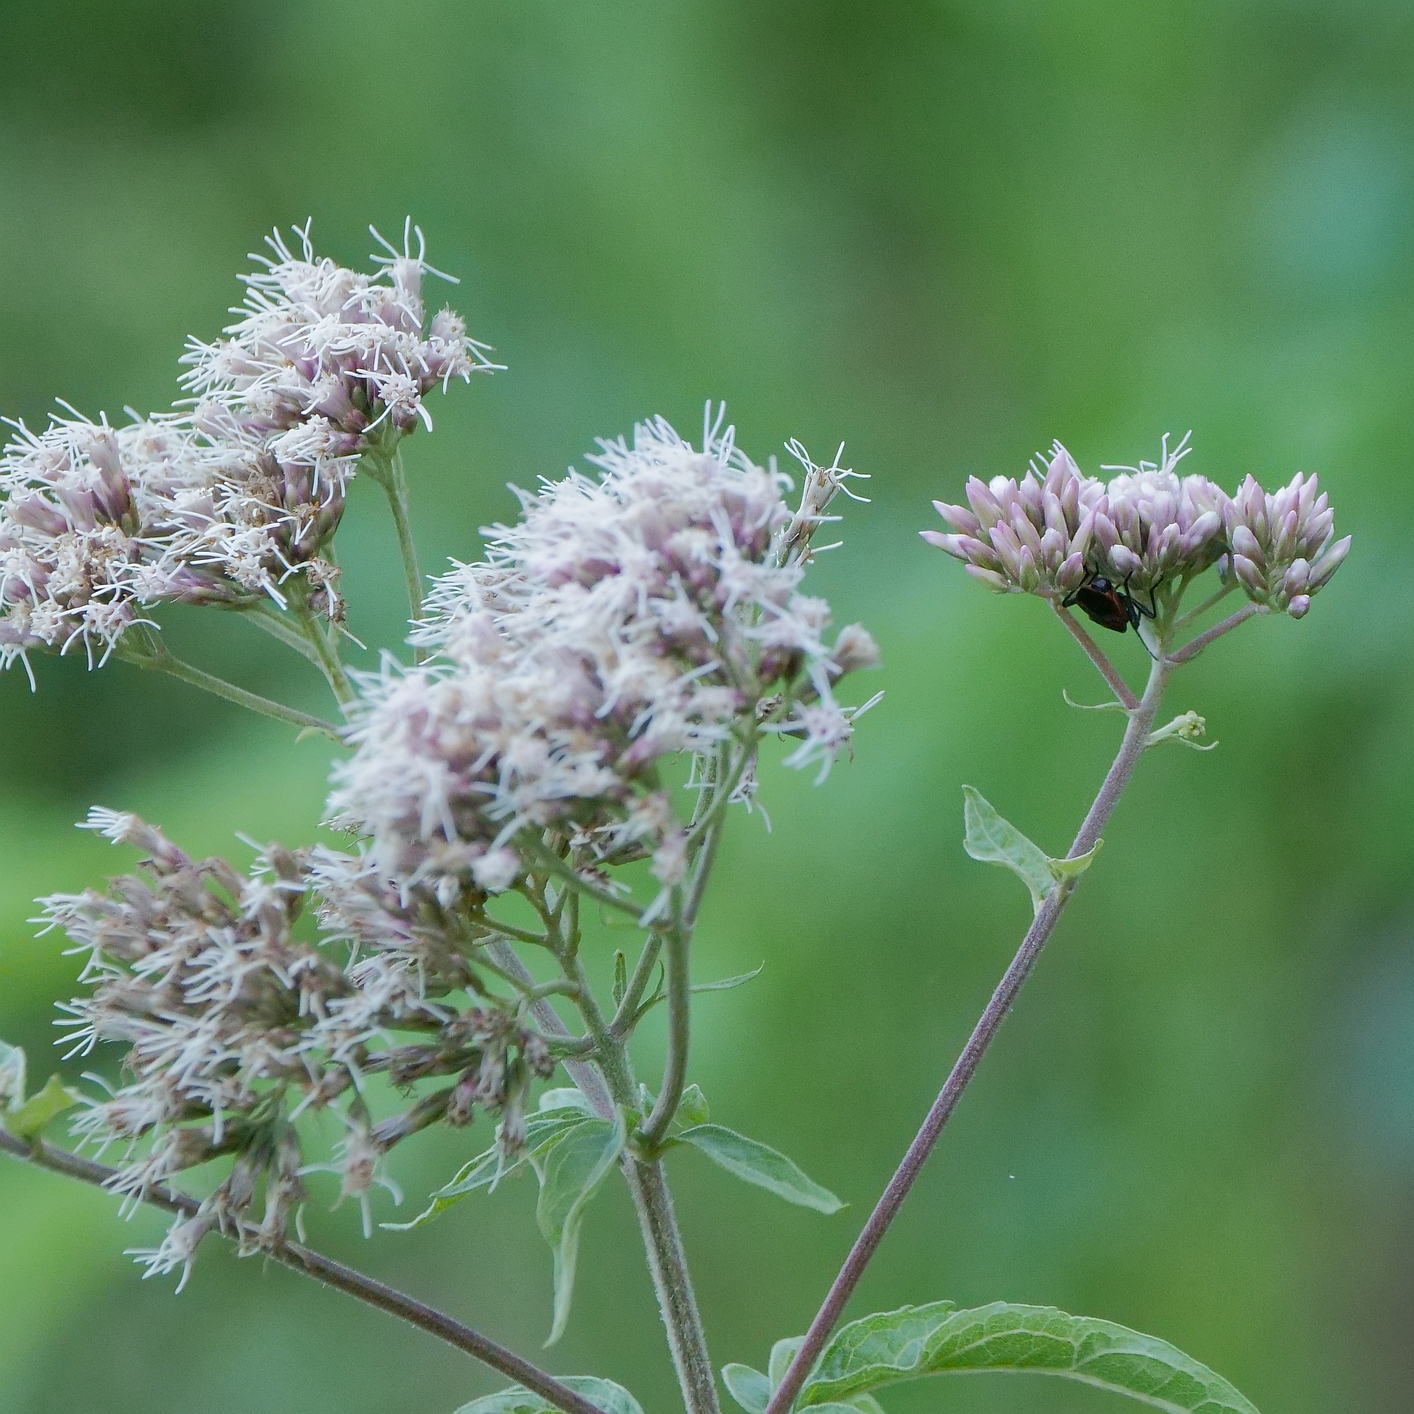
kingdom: Plantae
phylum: Tracheophyta
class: Magnoliopsida
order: Asterales
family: Asteraceae
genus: Eupatorium
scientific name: Eupatorium cannabinum
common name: Hemp-agrimony
